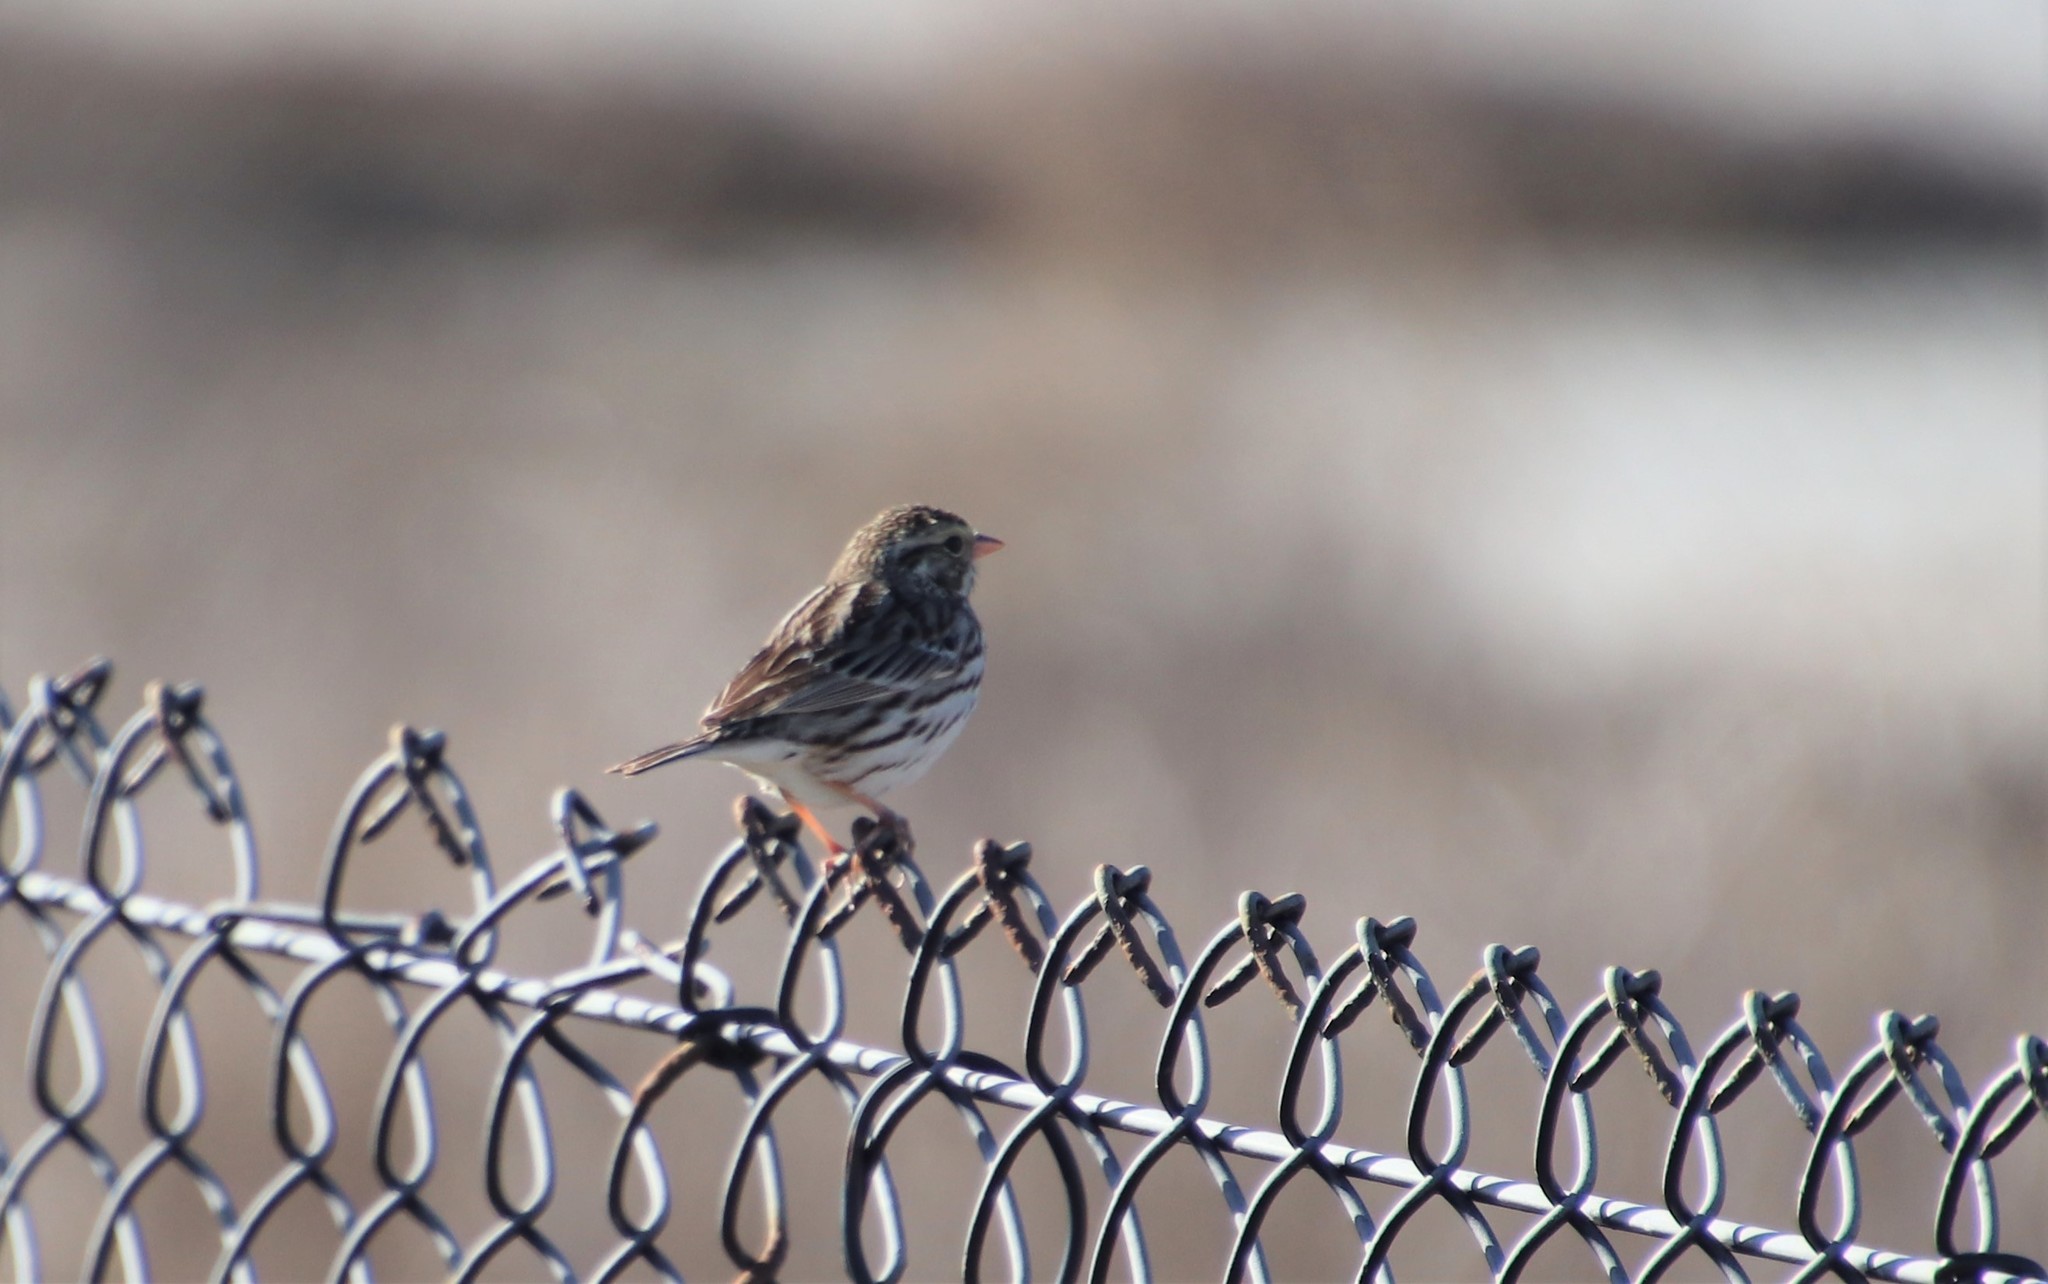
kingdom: Animalia
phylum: Chordata
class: Aves
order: Passeriformes
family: Passerellidae
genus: Passerculus
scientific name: Passerculus sandwichensis
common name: Savannah sparrow
